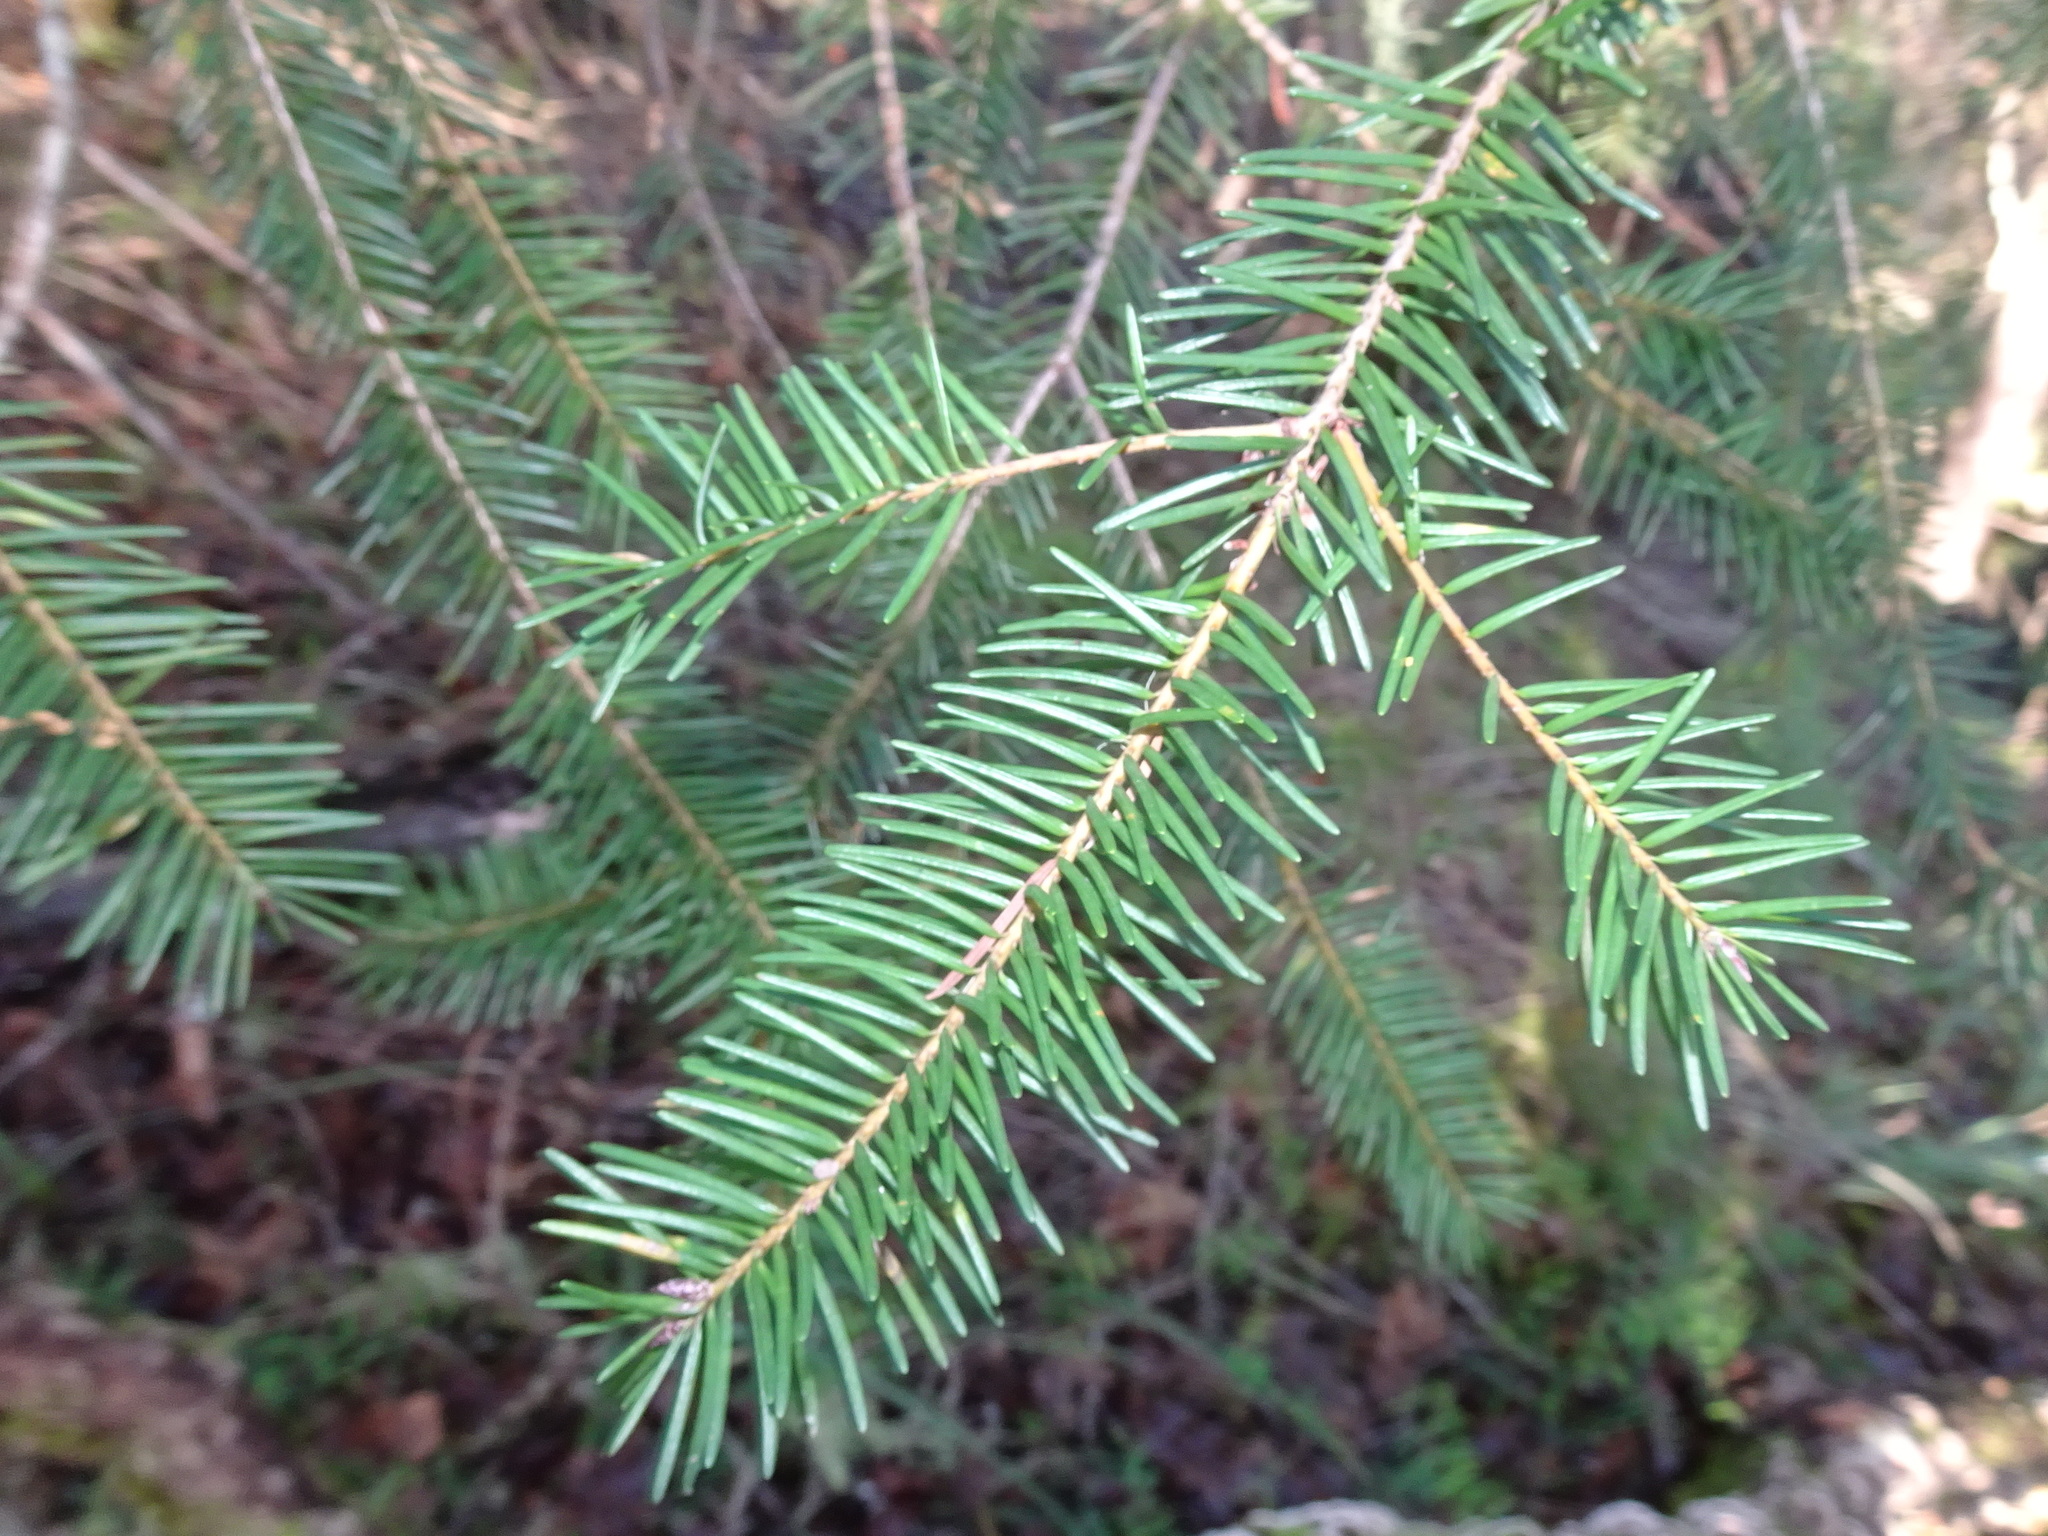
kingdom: Plantae
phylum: Tracheophyta
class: Pinopsida
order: Pinales
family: Pinaceae
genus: Pseudotsuga
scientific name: Pseudotsuga menziesii
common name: Douglas fir
